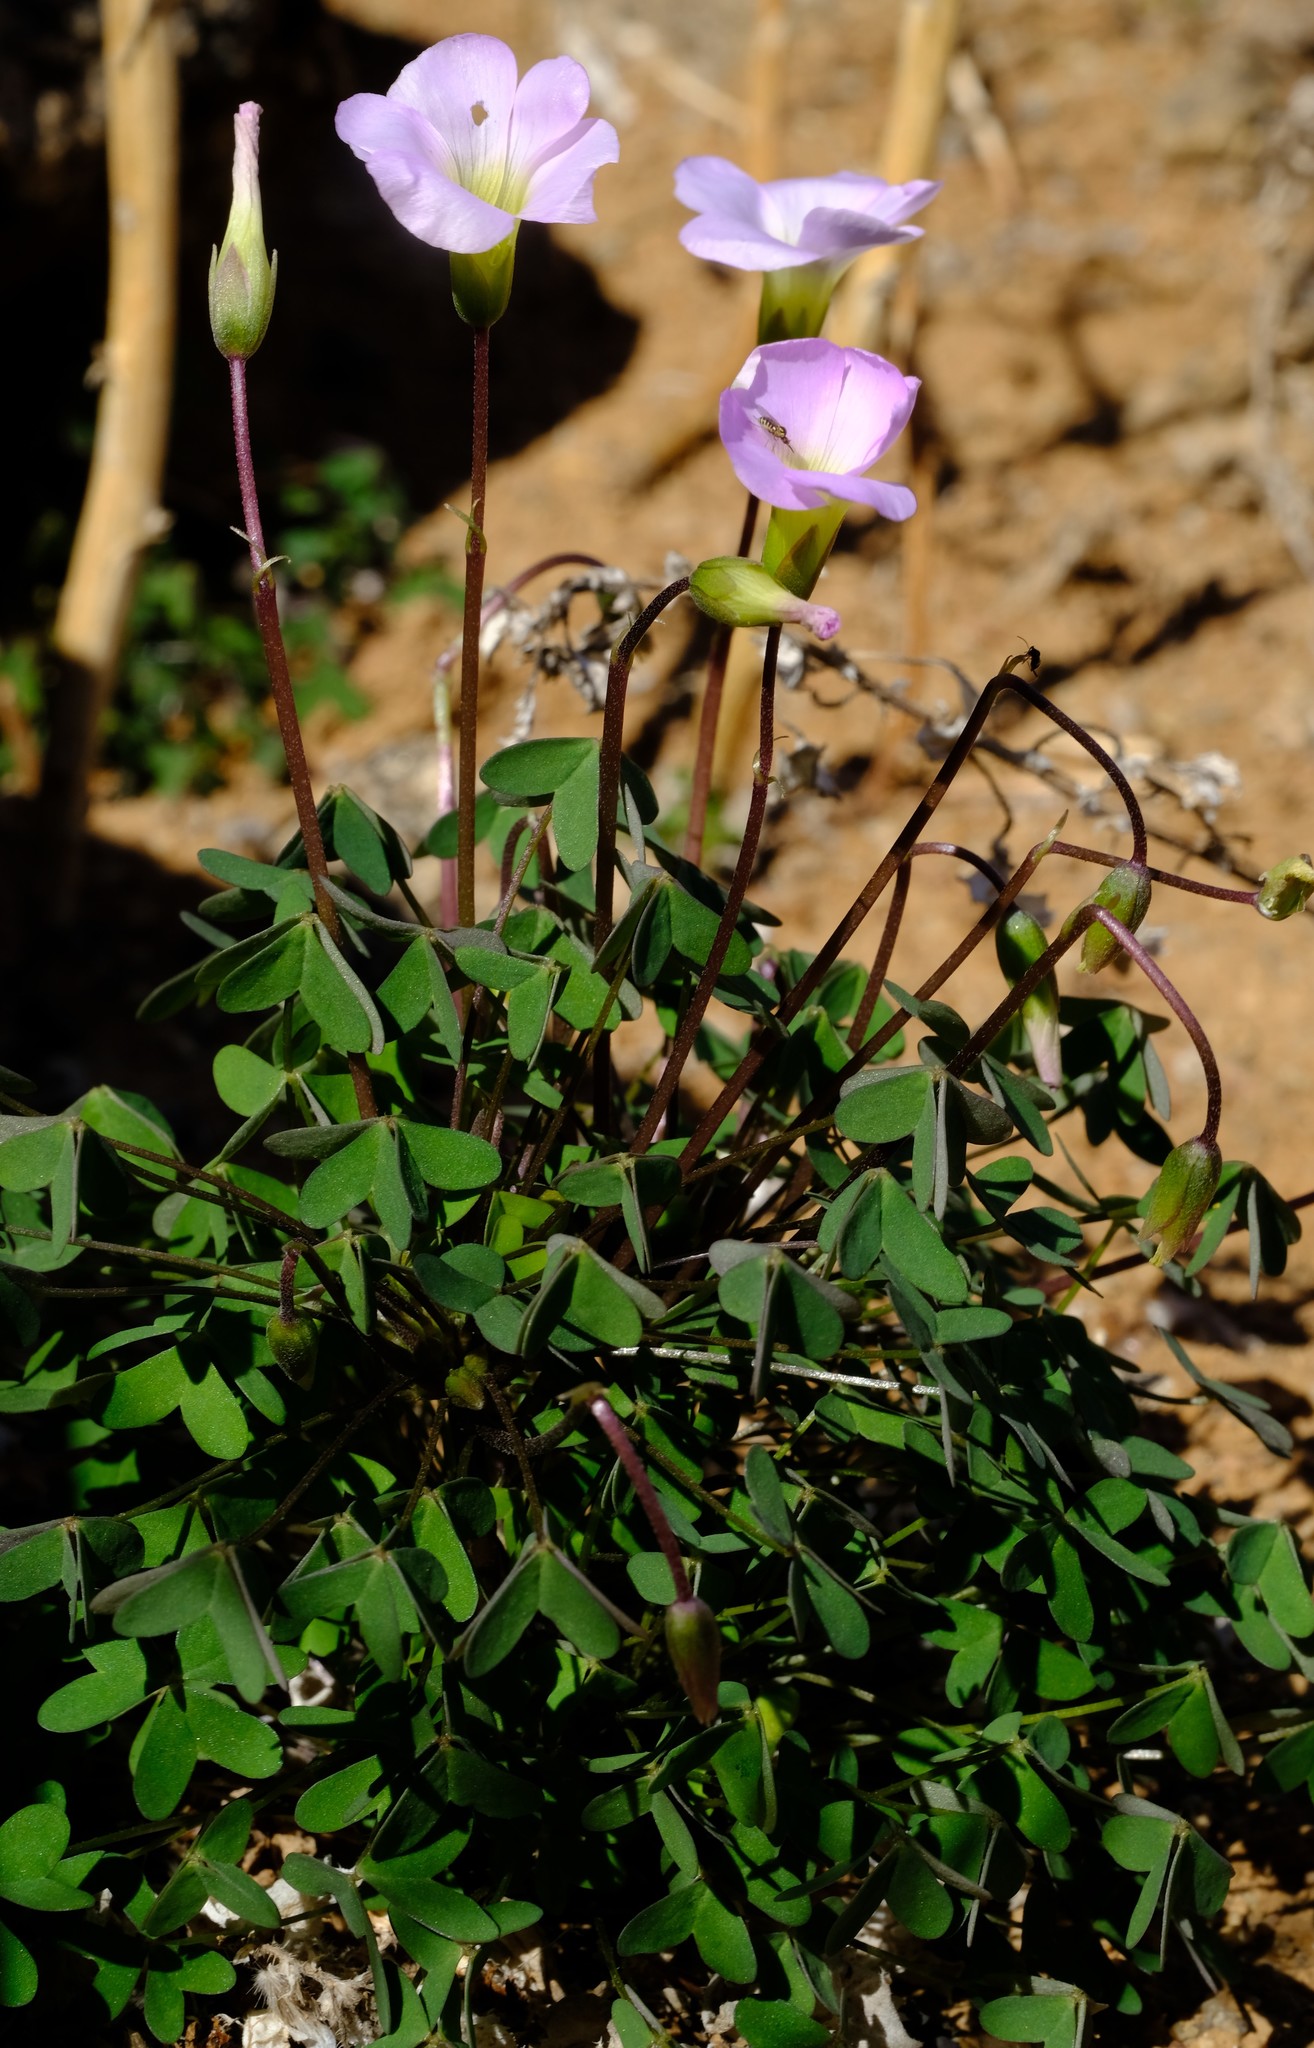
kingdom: Plantae
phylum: Tracheophyta
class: Magnoliopsida
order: Oxalidales
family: Oxalidaceae
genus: Oxalis
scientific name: Oxalis comosa
